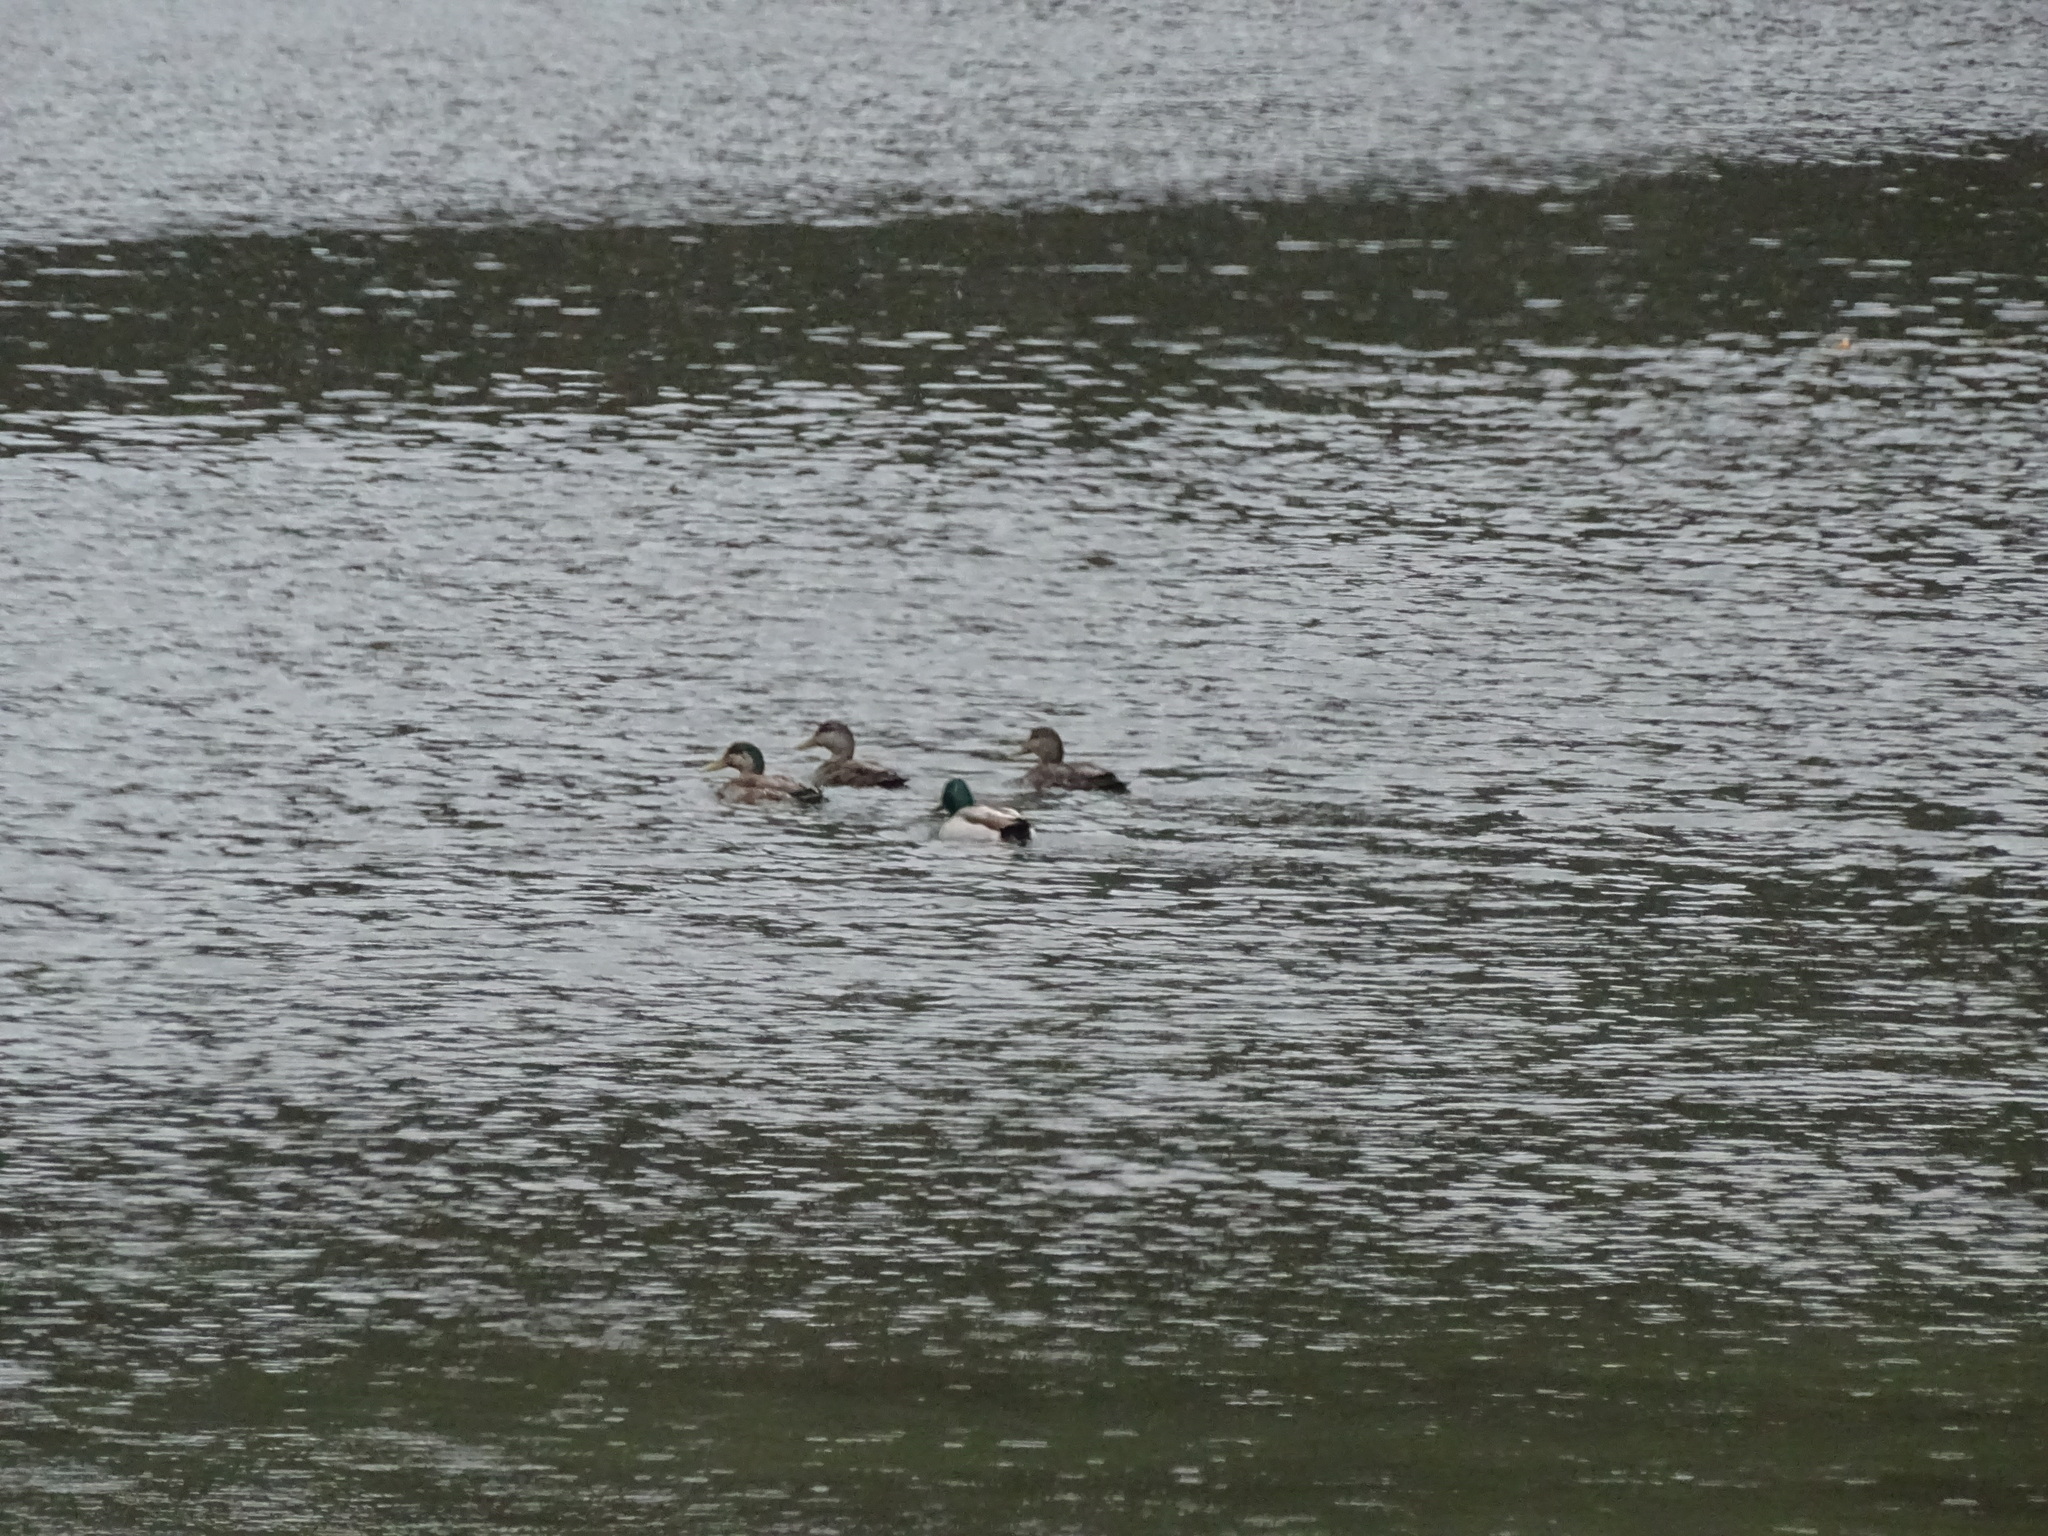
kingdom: Animalia
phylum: Chordata
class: Aves
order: Anseriformes
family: Anatidae
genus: Anas
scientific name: Anas platyrhynchos
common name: Mallard
